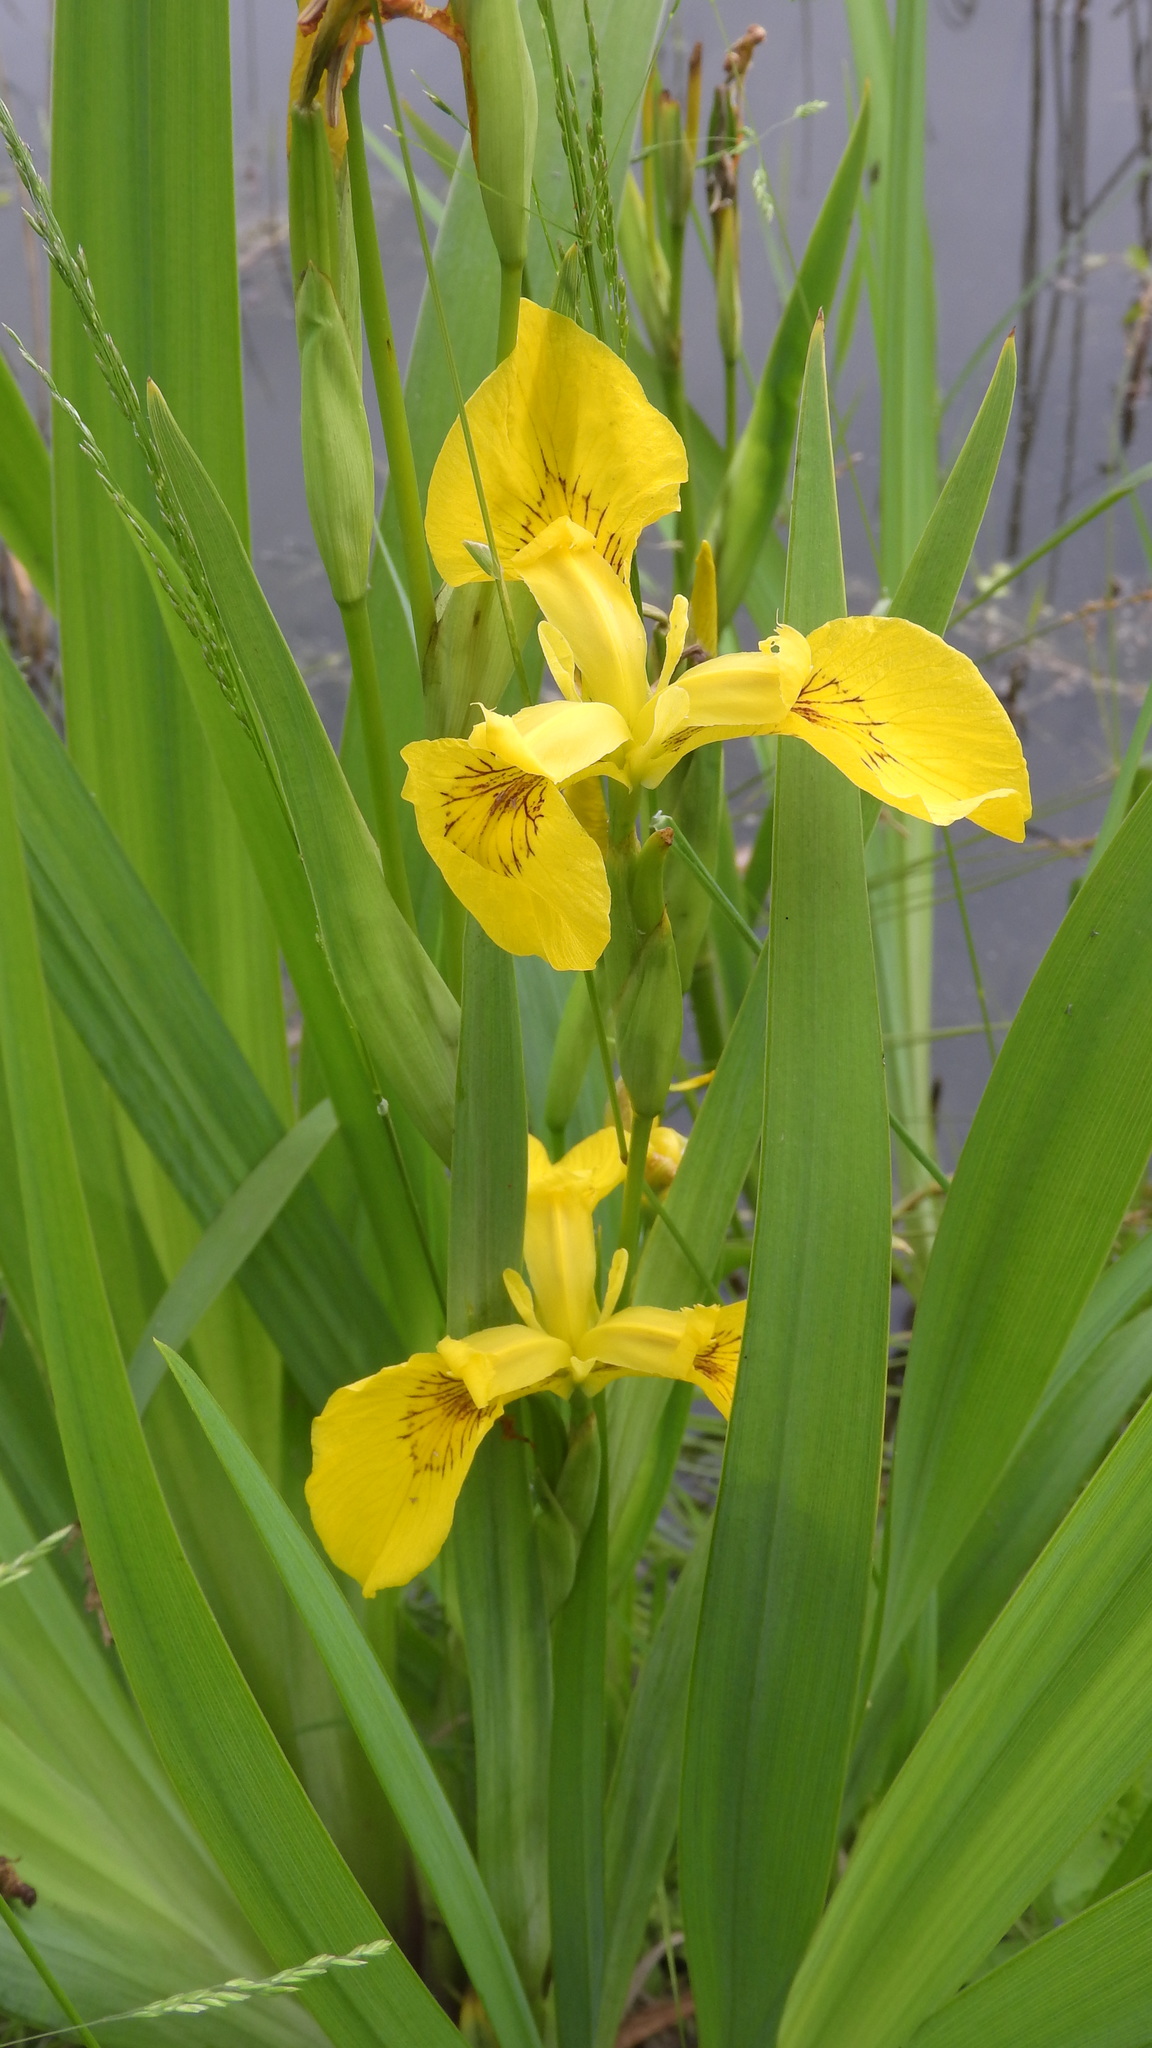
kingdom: Plantae
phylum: Tracheophyta
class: Liliopsida
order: Asparagales
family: Iridaceae
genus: Iris
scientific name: Iris pseudacorus
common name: Yellow flag
